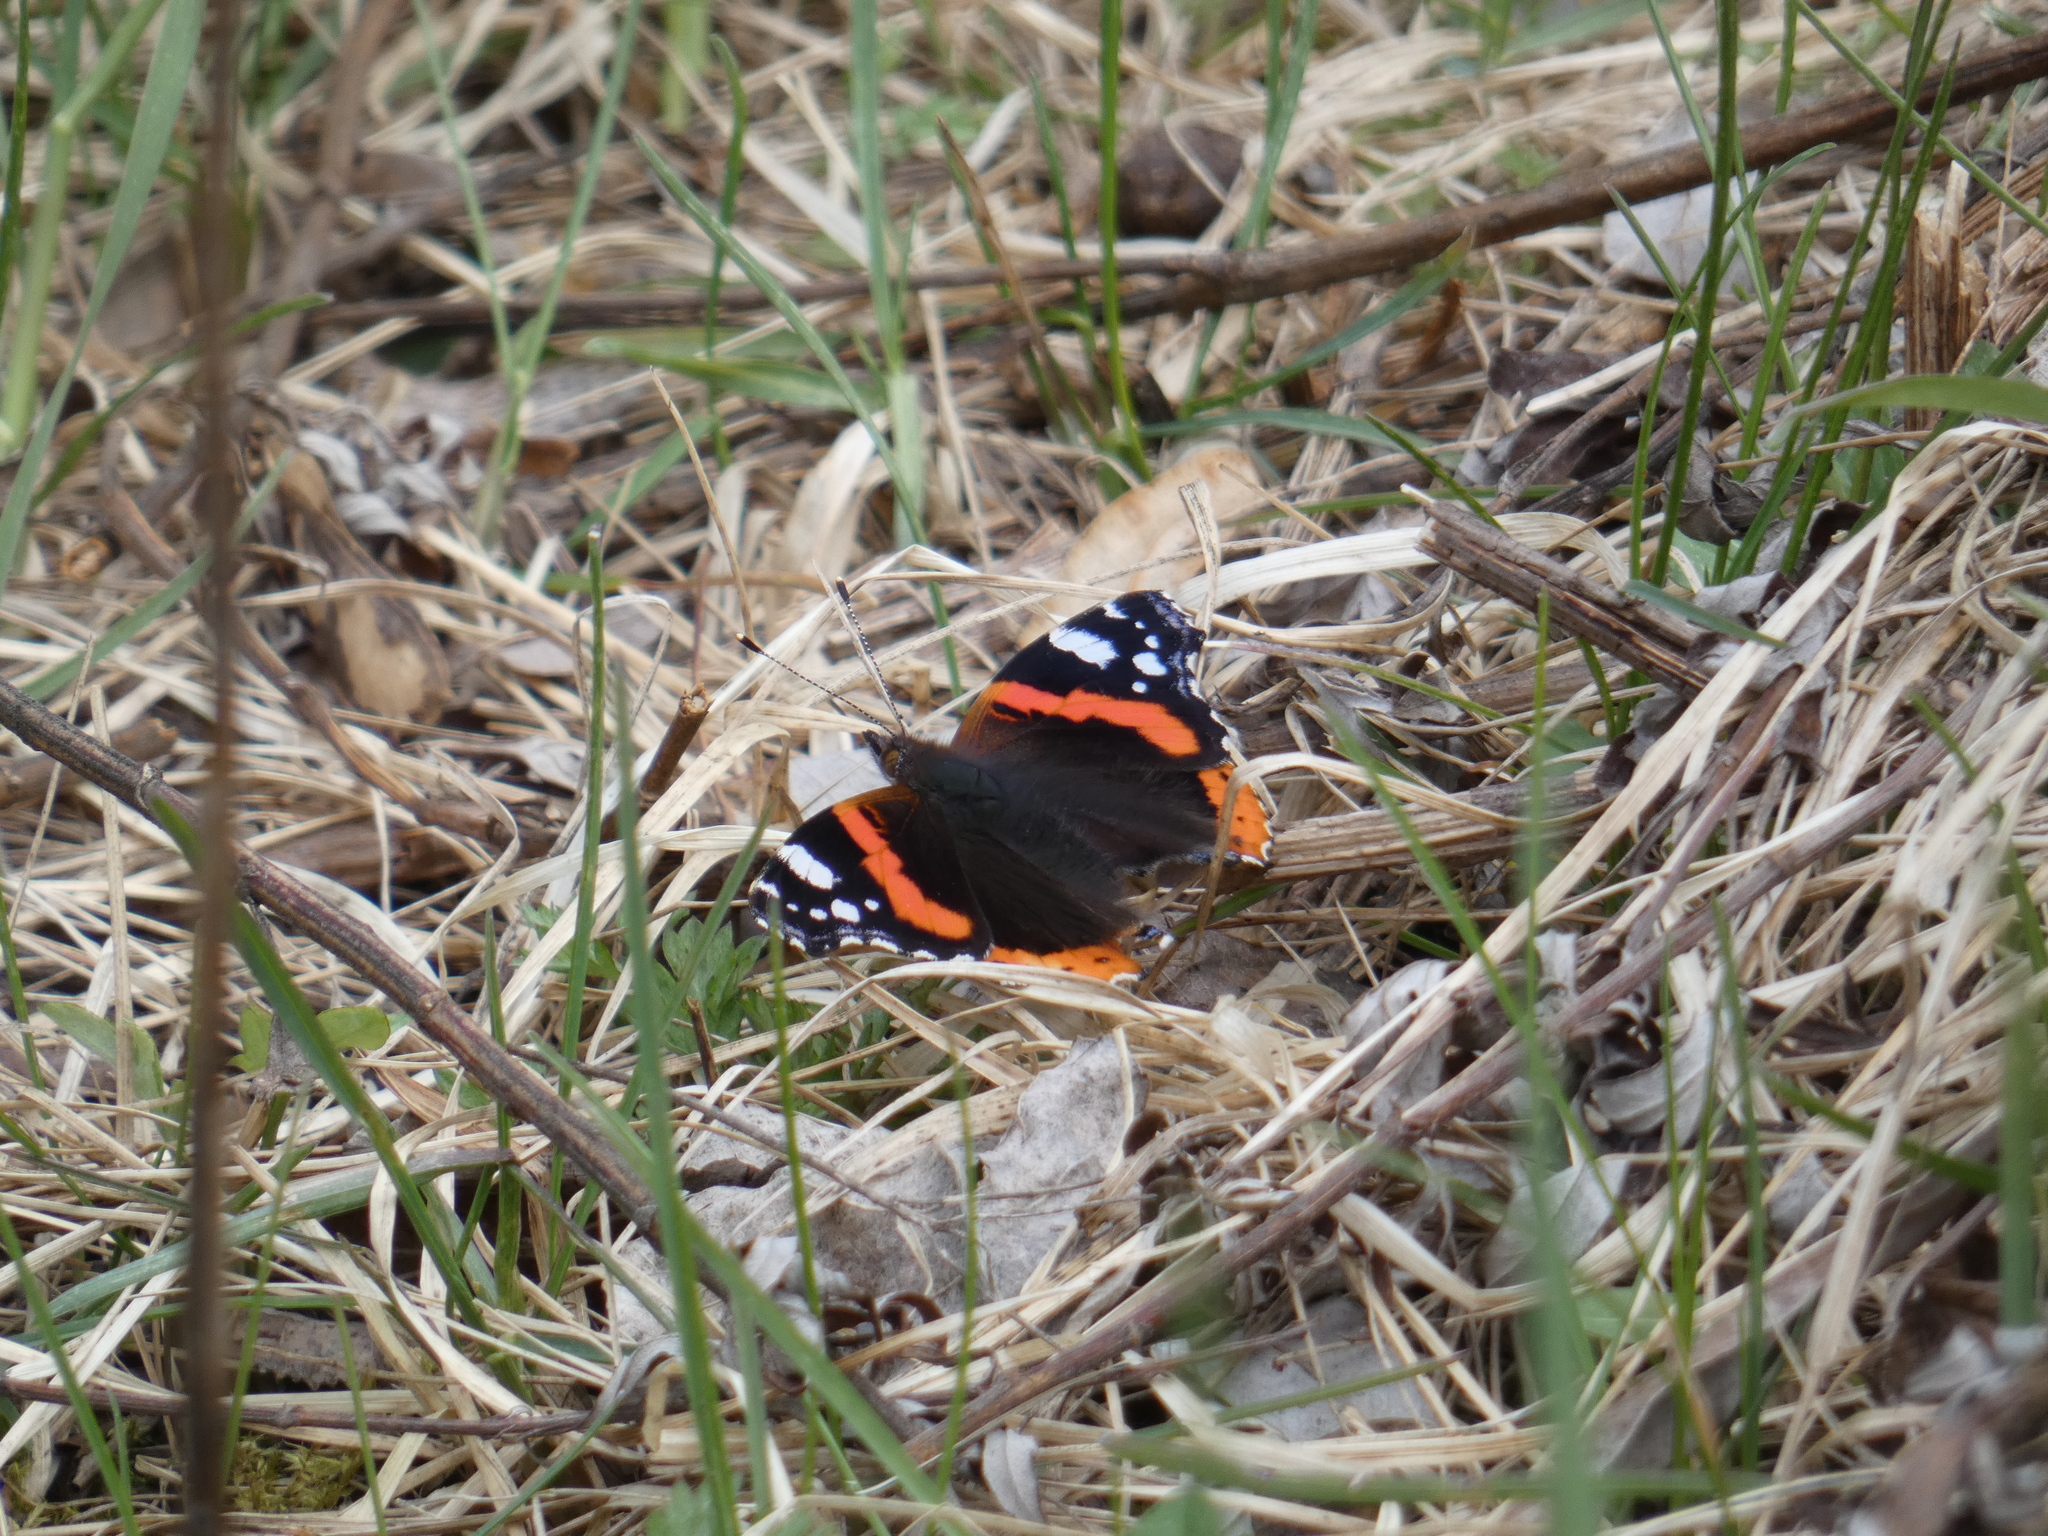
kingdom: Animalia
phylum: Arthropoda
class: Insecta
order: Lepidoptera
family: Nymphalidae
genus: Vanessa
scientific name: Vanessa atalanta
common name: Red admiral
